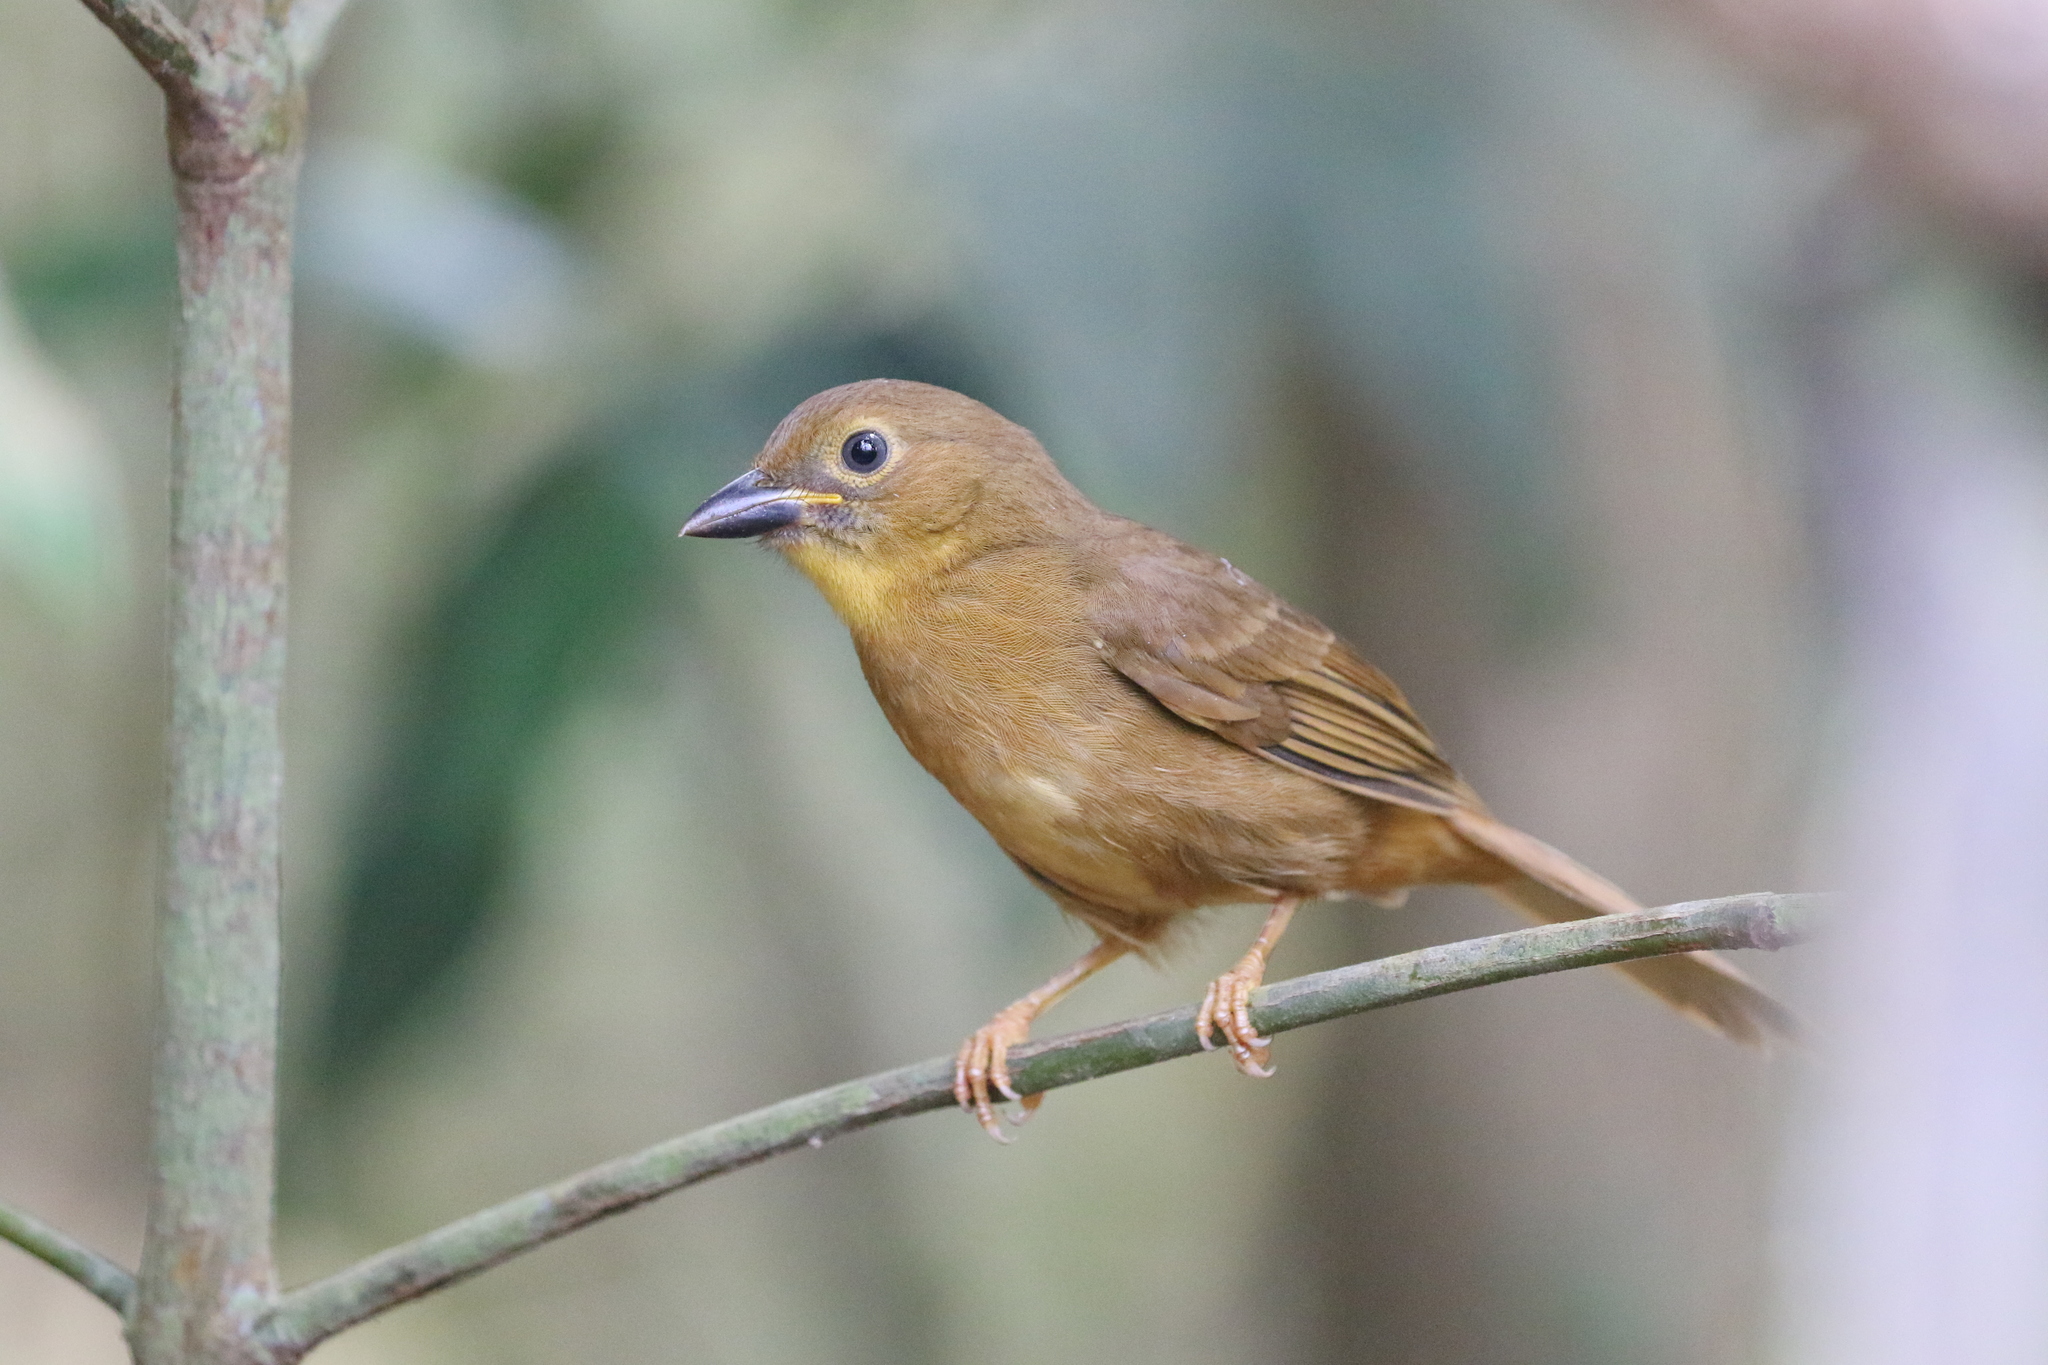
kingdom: Animalia
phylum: Chordata
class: Aves
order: Passeriformes
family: Cardinalidae
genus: Habia
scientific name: Habia fuscicauda
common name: Red-throated ant-tanager
